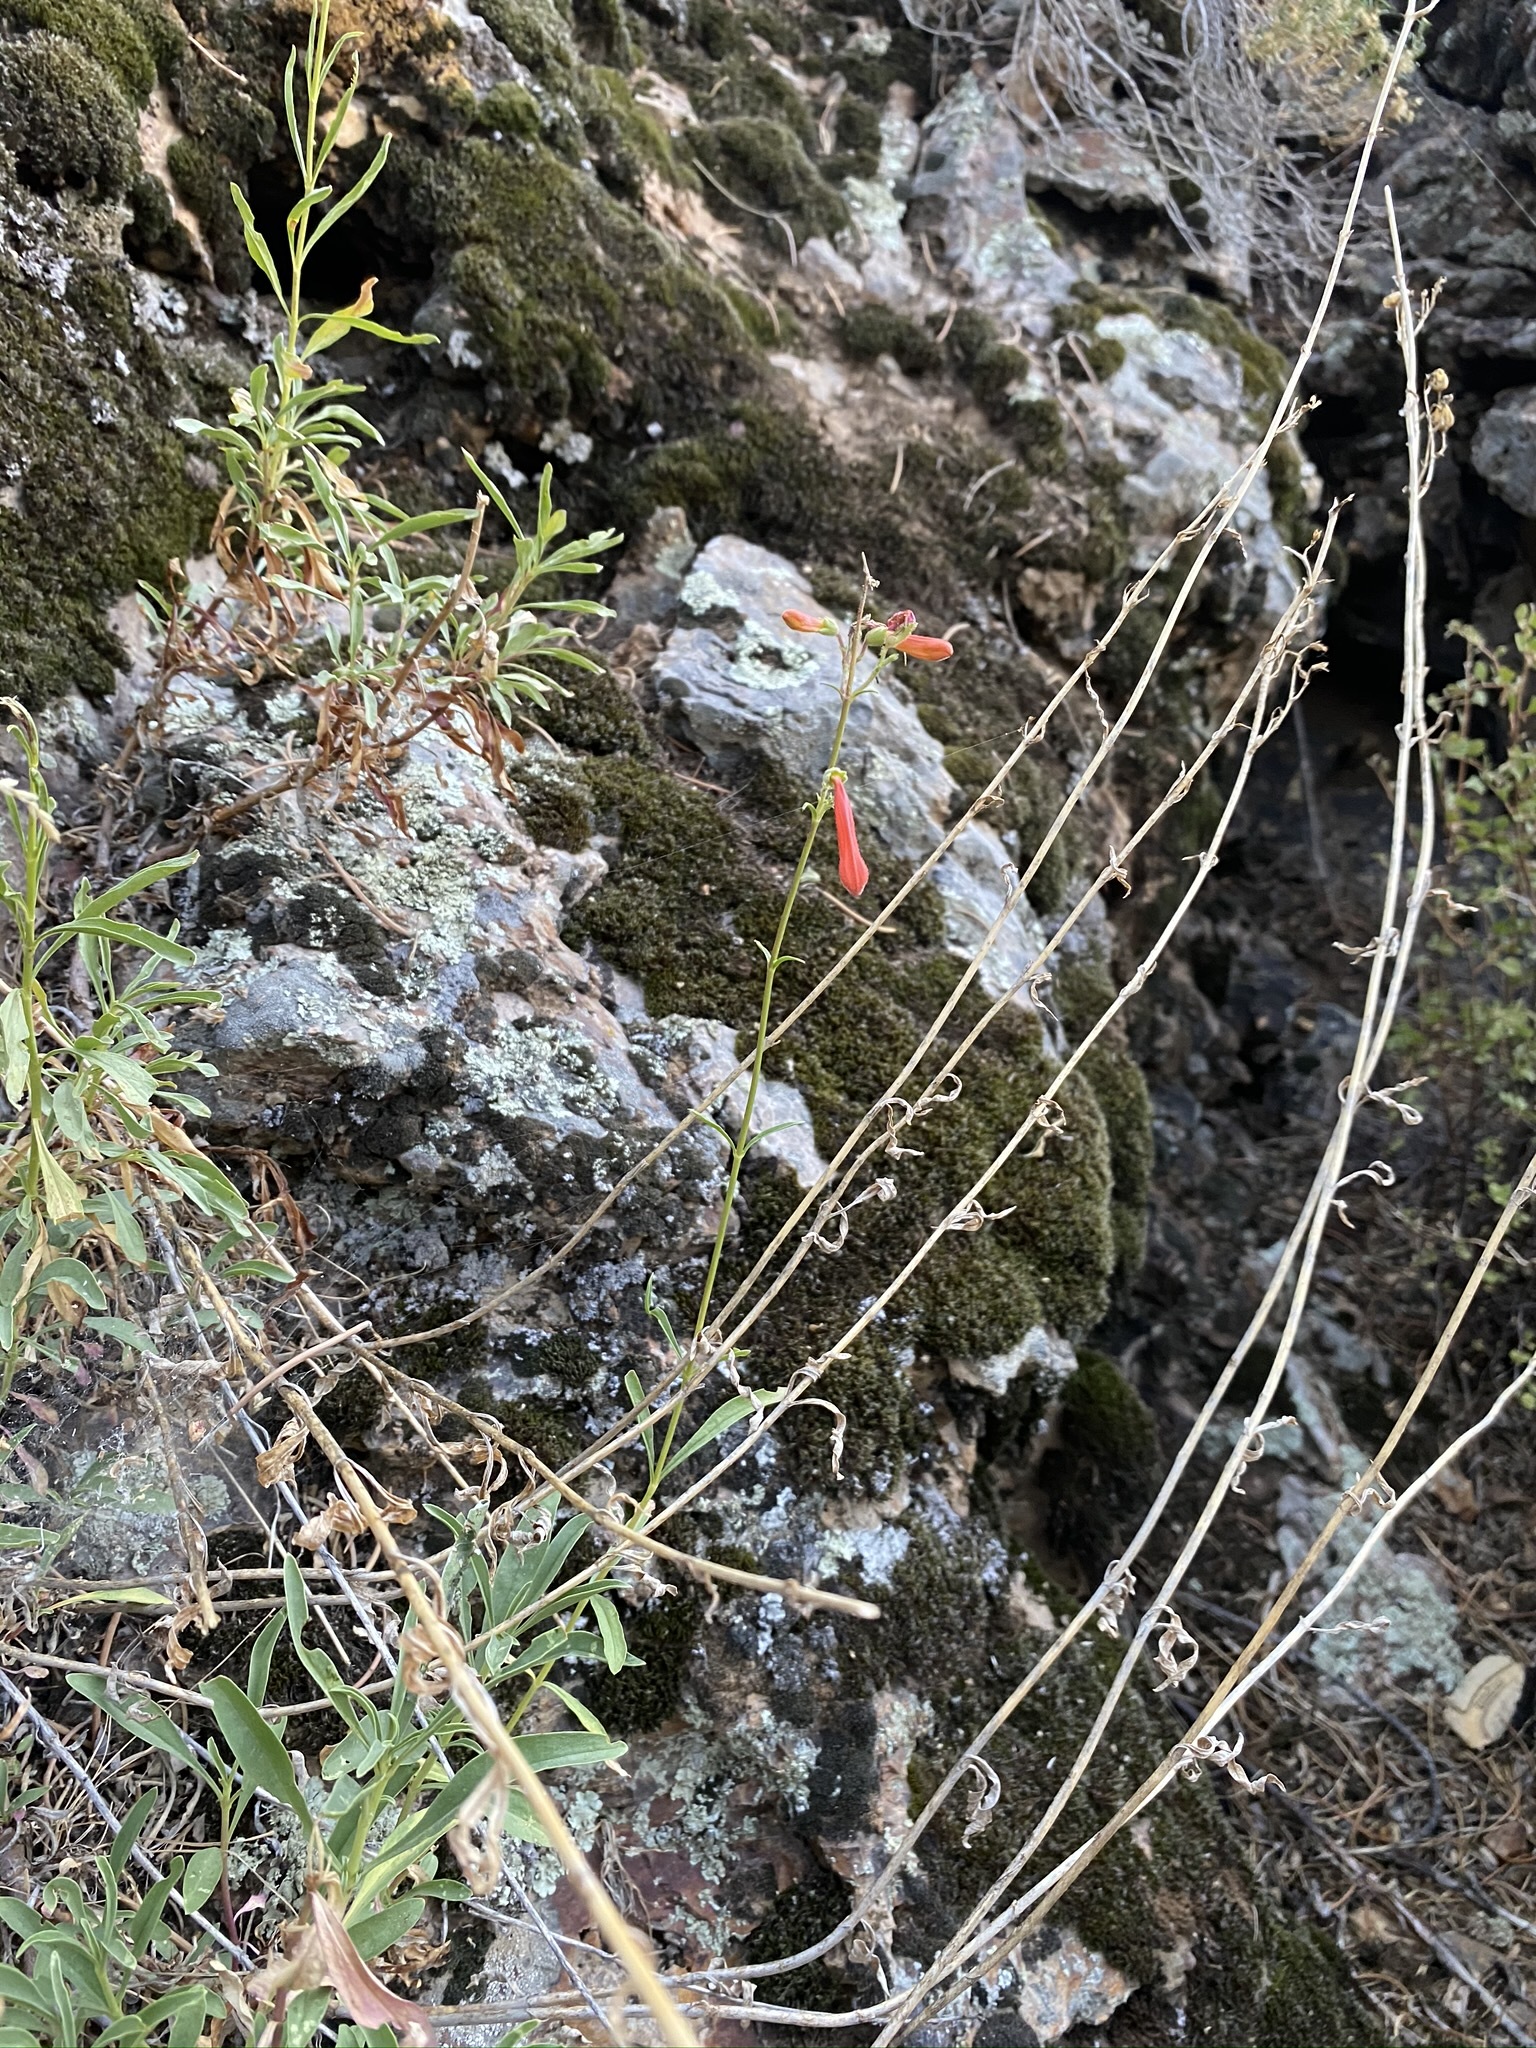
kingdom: Plantae
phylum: Tracheophyta
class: Magnoliopsida
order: Lamiales
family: Plantaginaceae
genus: Penstemon
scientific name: Penstemon rostriflorus
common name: Bridges's penstemon
